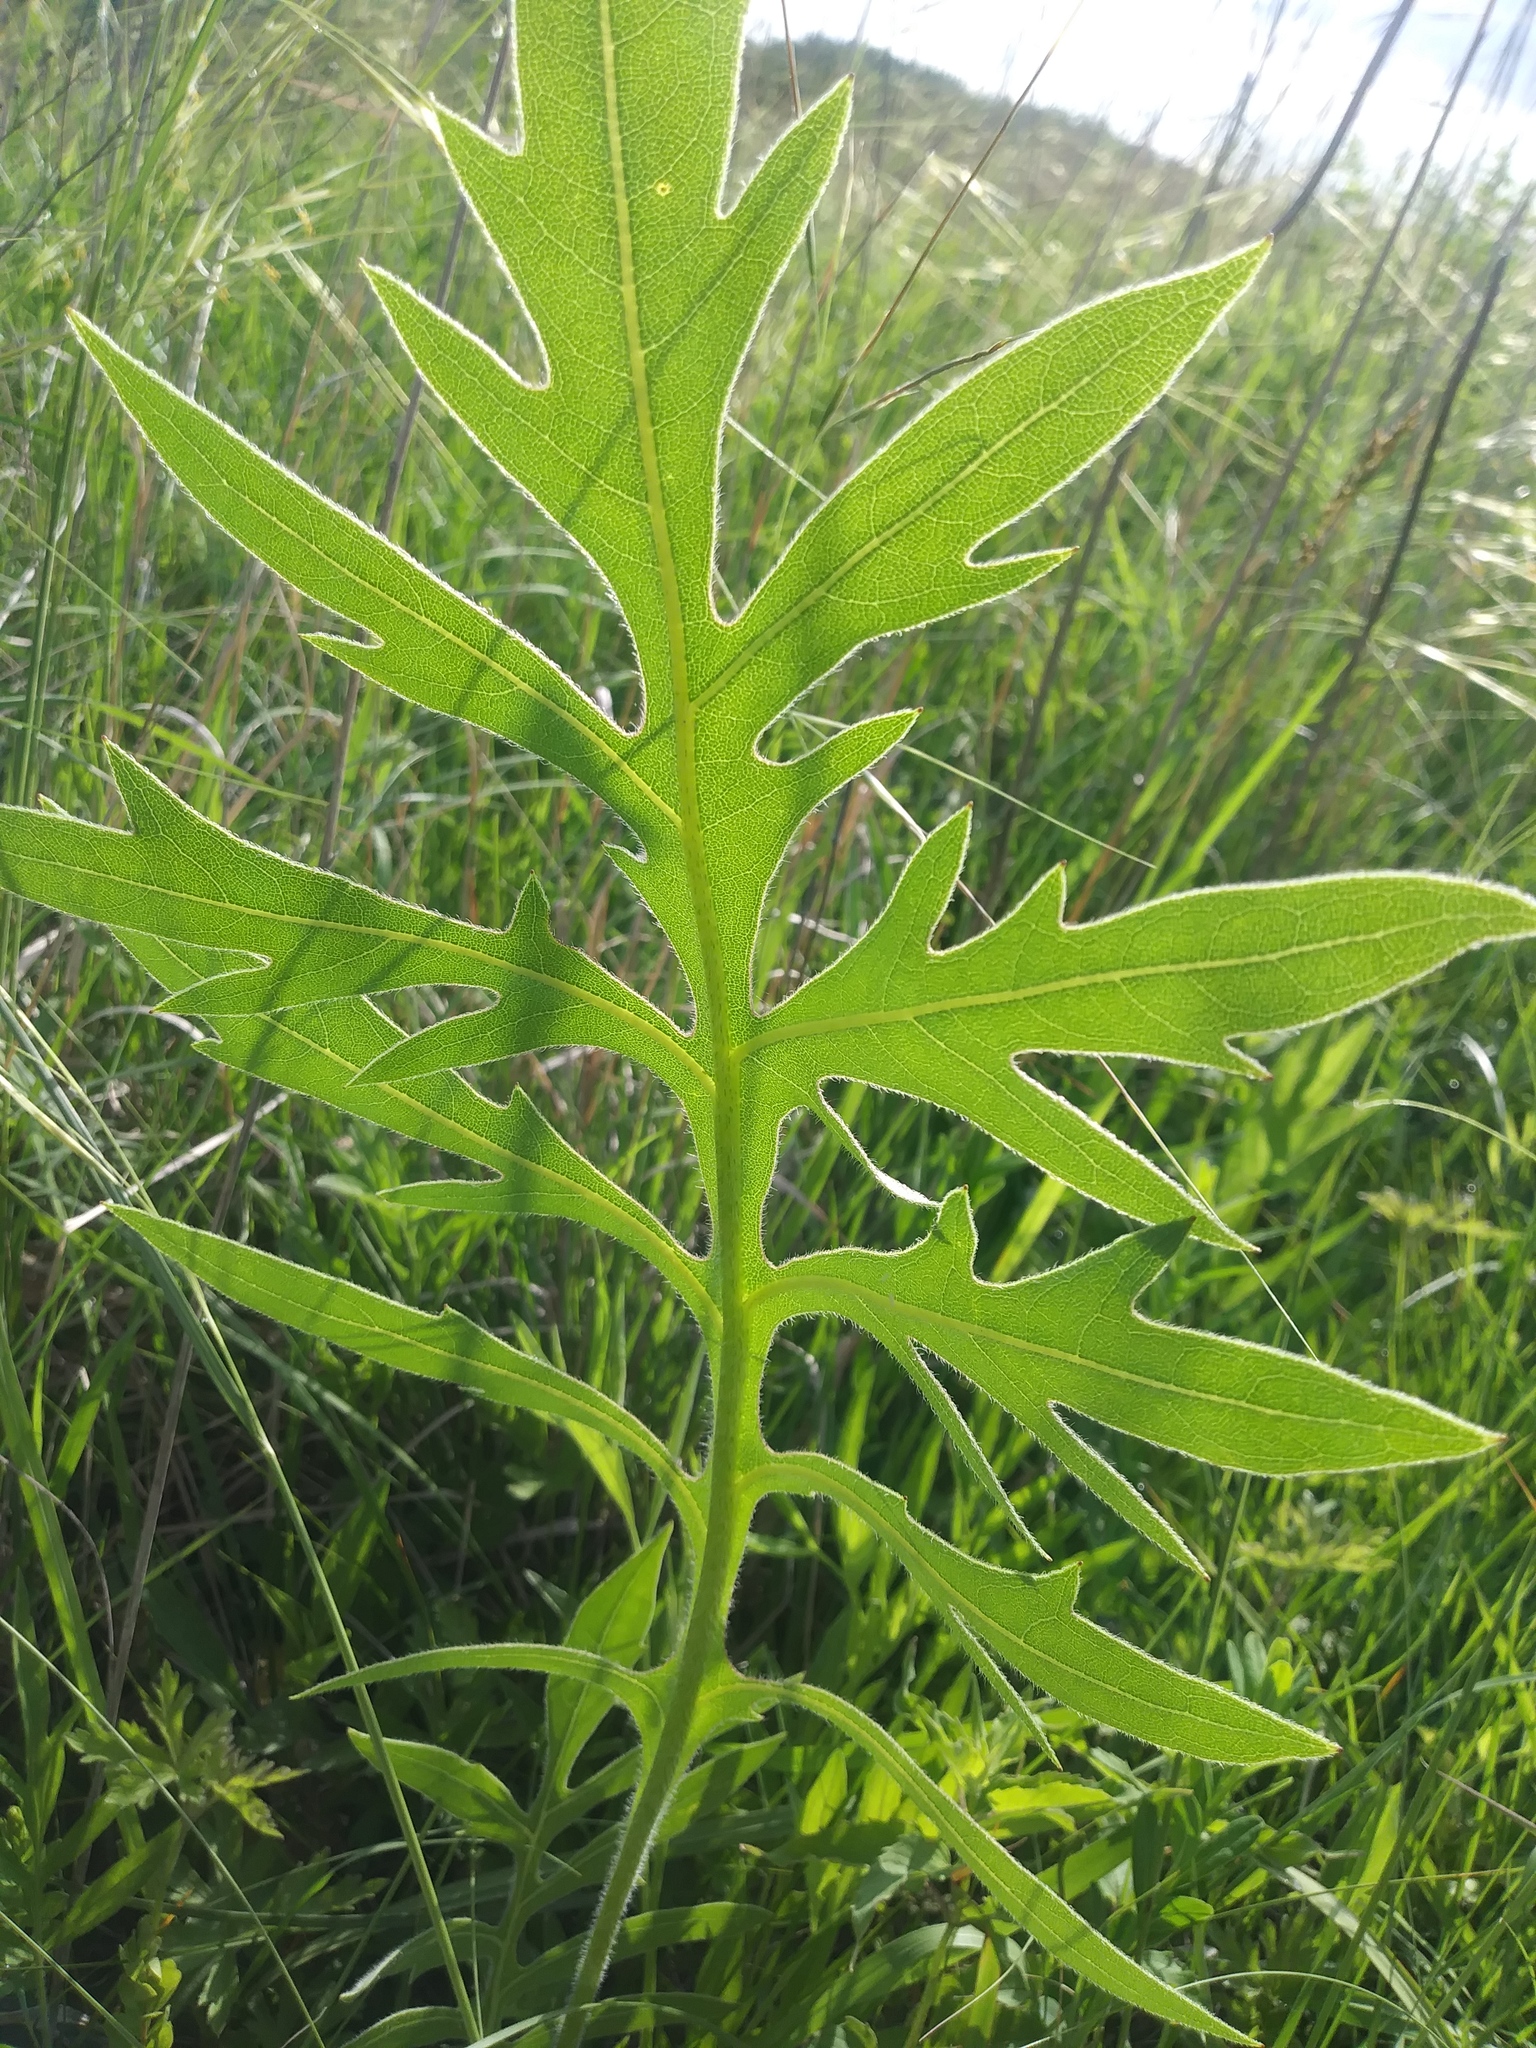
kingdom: Plantae
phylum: Tracheophyta
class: Magnoliopsida
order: Asterales
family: Asteraceae
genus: Silphium
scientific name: Silphium laciniatum
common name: Polarplant
